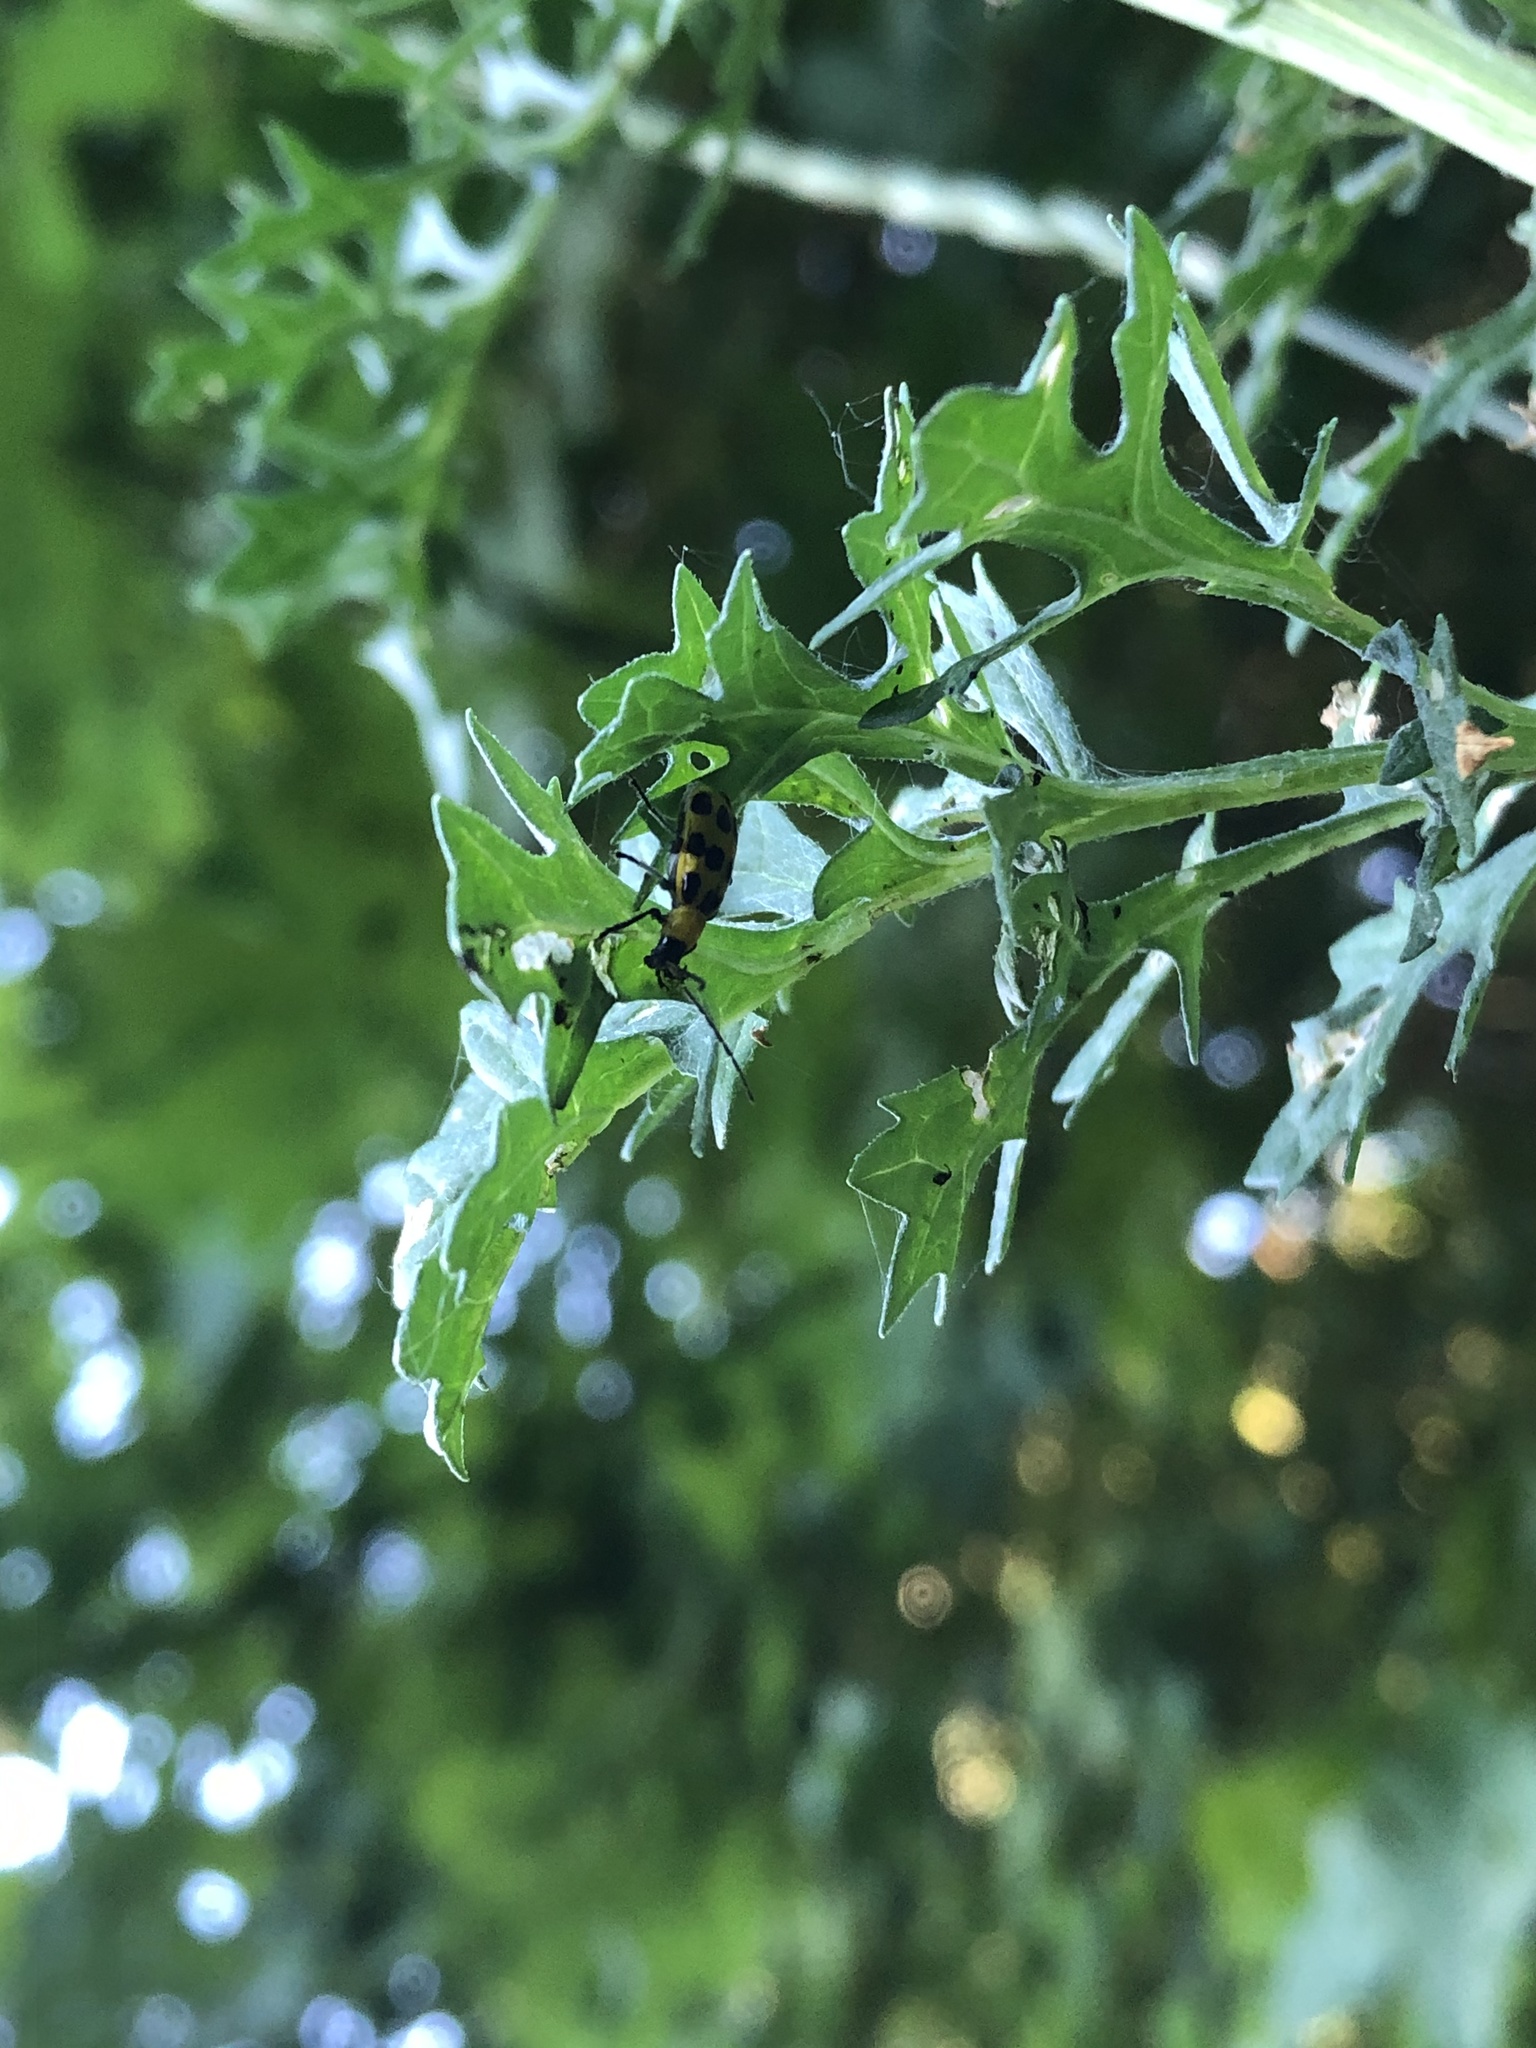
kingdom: Animalia
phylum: Arthropoda
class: Insecta
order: Coleoptera
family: Chrysomelidae
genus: Diabrotica
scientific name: Diabrotica undecimpunctata
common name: Spotted cucumber beetle
